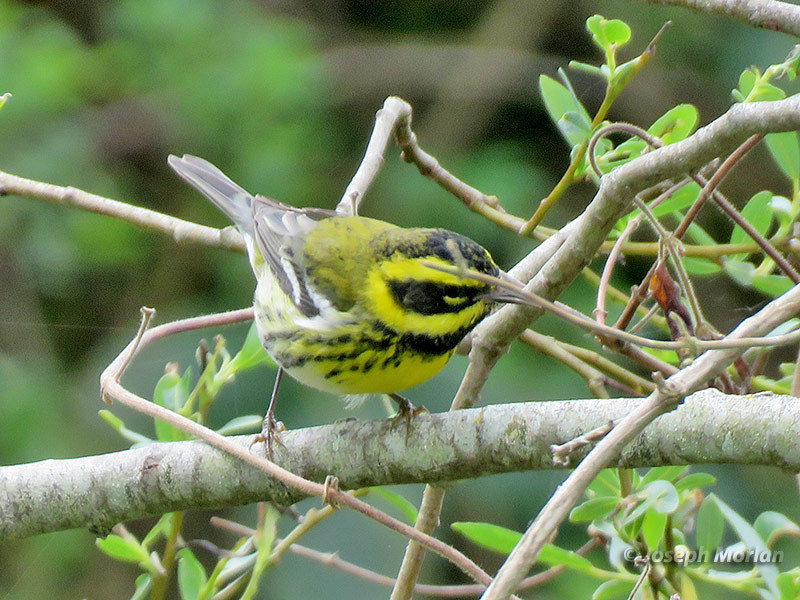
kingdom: Animalia
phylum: Chordata
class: Aves
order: Passeriformes
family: Parulidae
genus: Setophaga
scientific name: Setophaga townsendi
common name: Townsend's warbler
